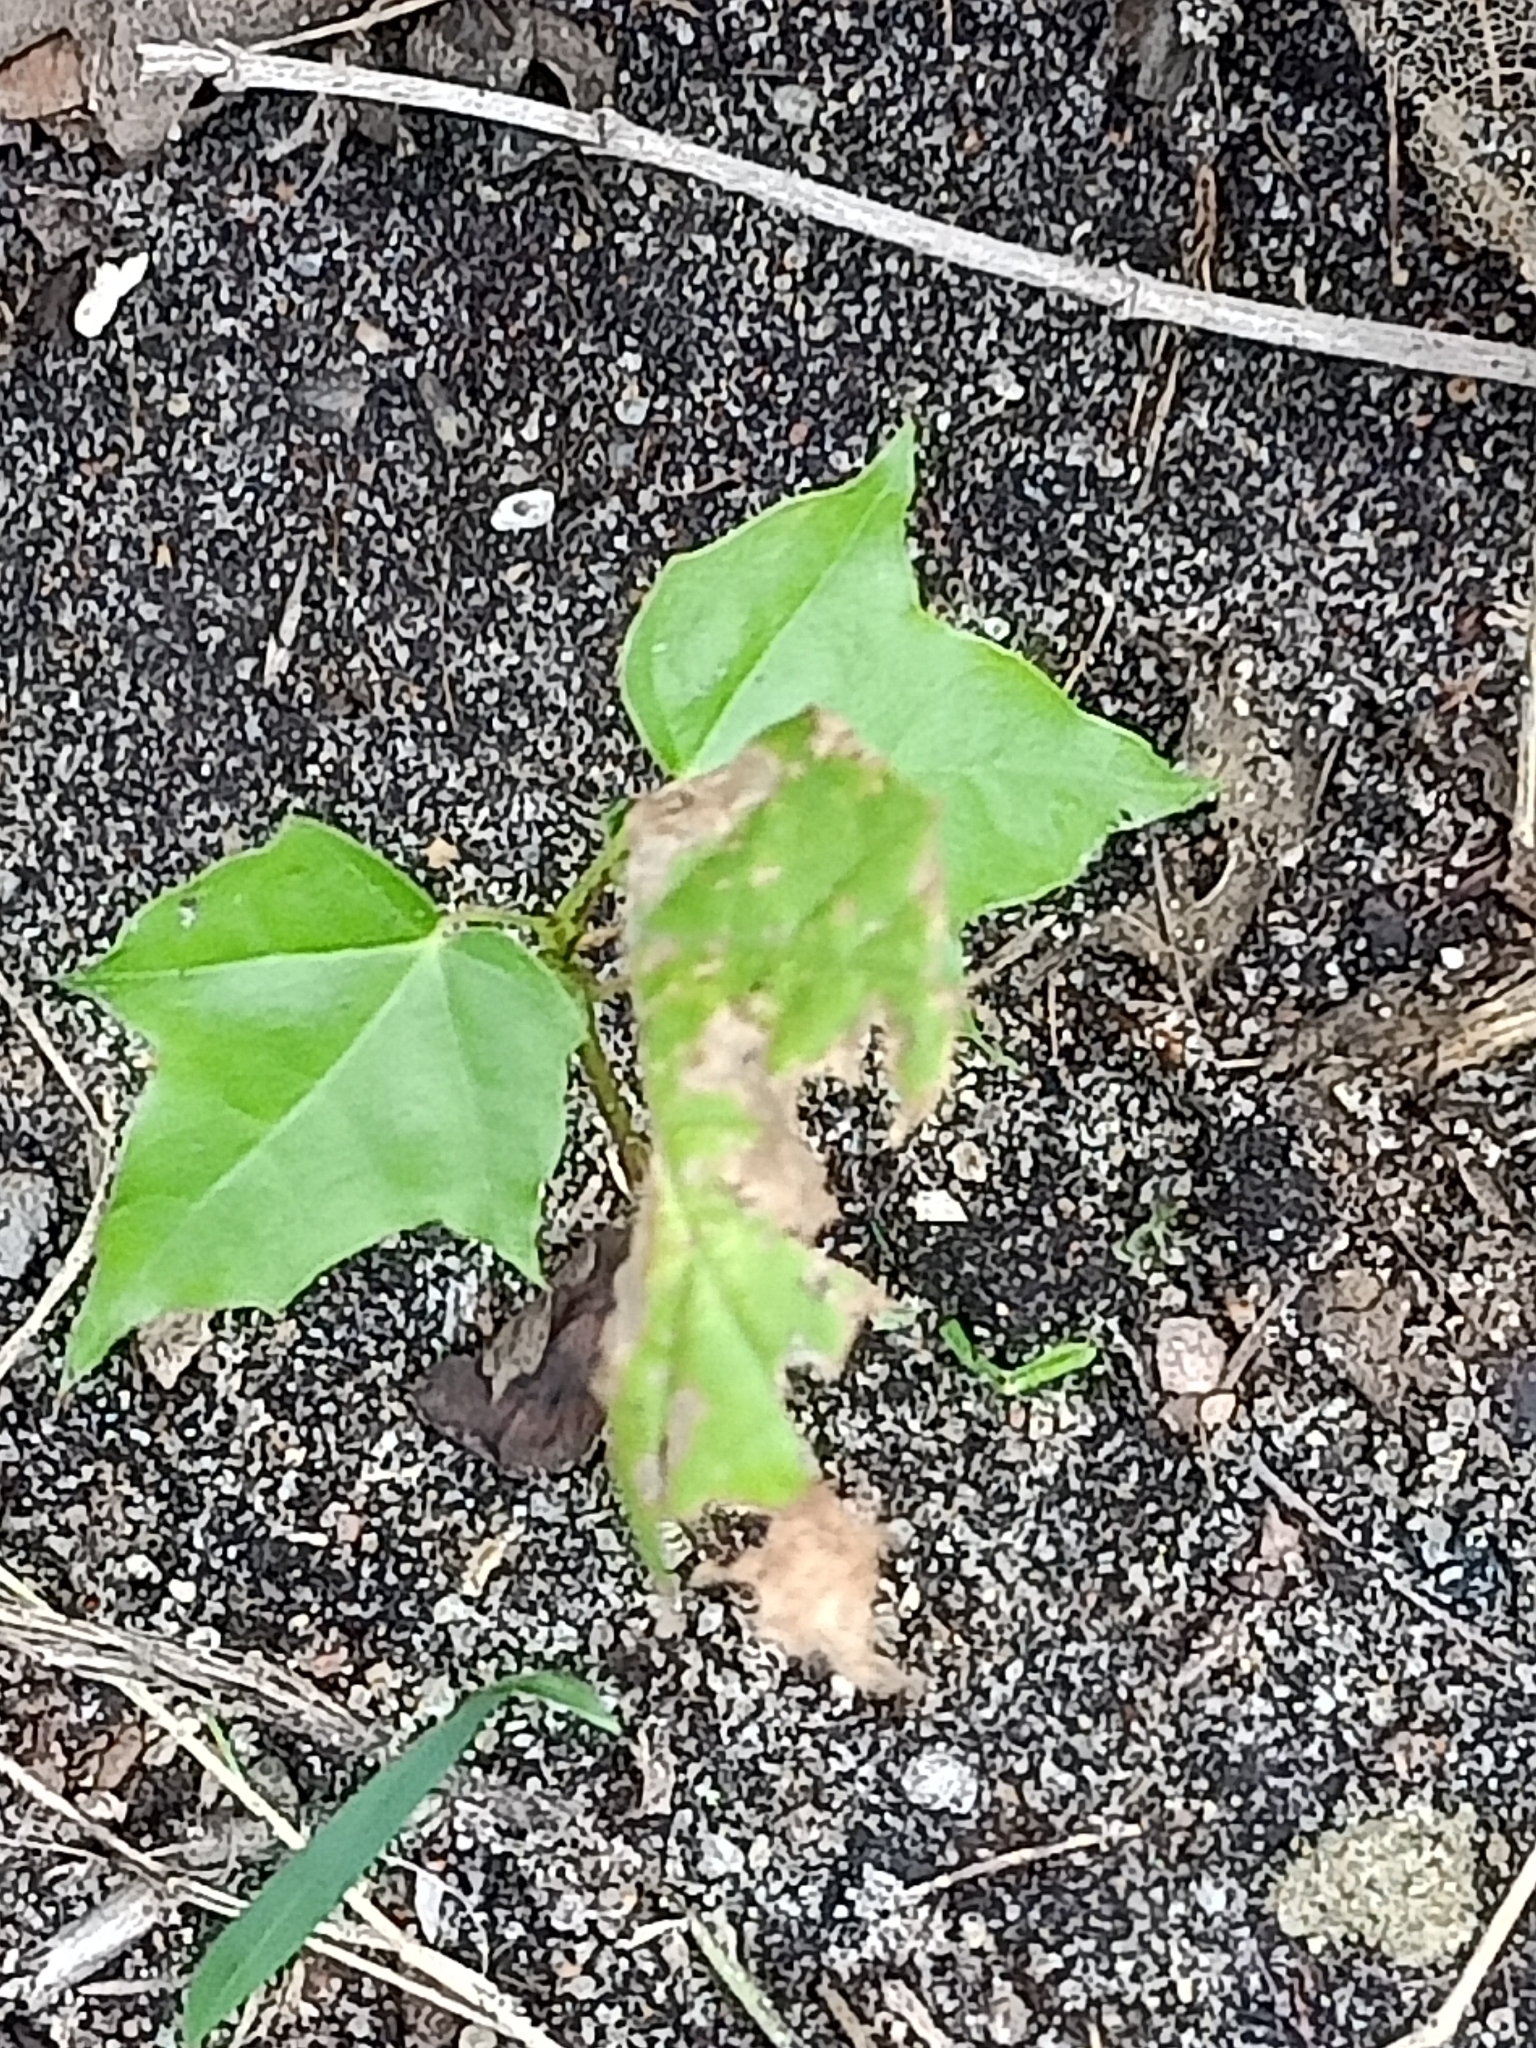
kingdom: Plantae
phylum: Tracheophyta
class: Magnoliopsida
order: Sapindales
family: Sapindaceae
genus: Acer
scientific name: Acer platanoides
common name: Norway maple
